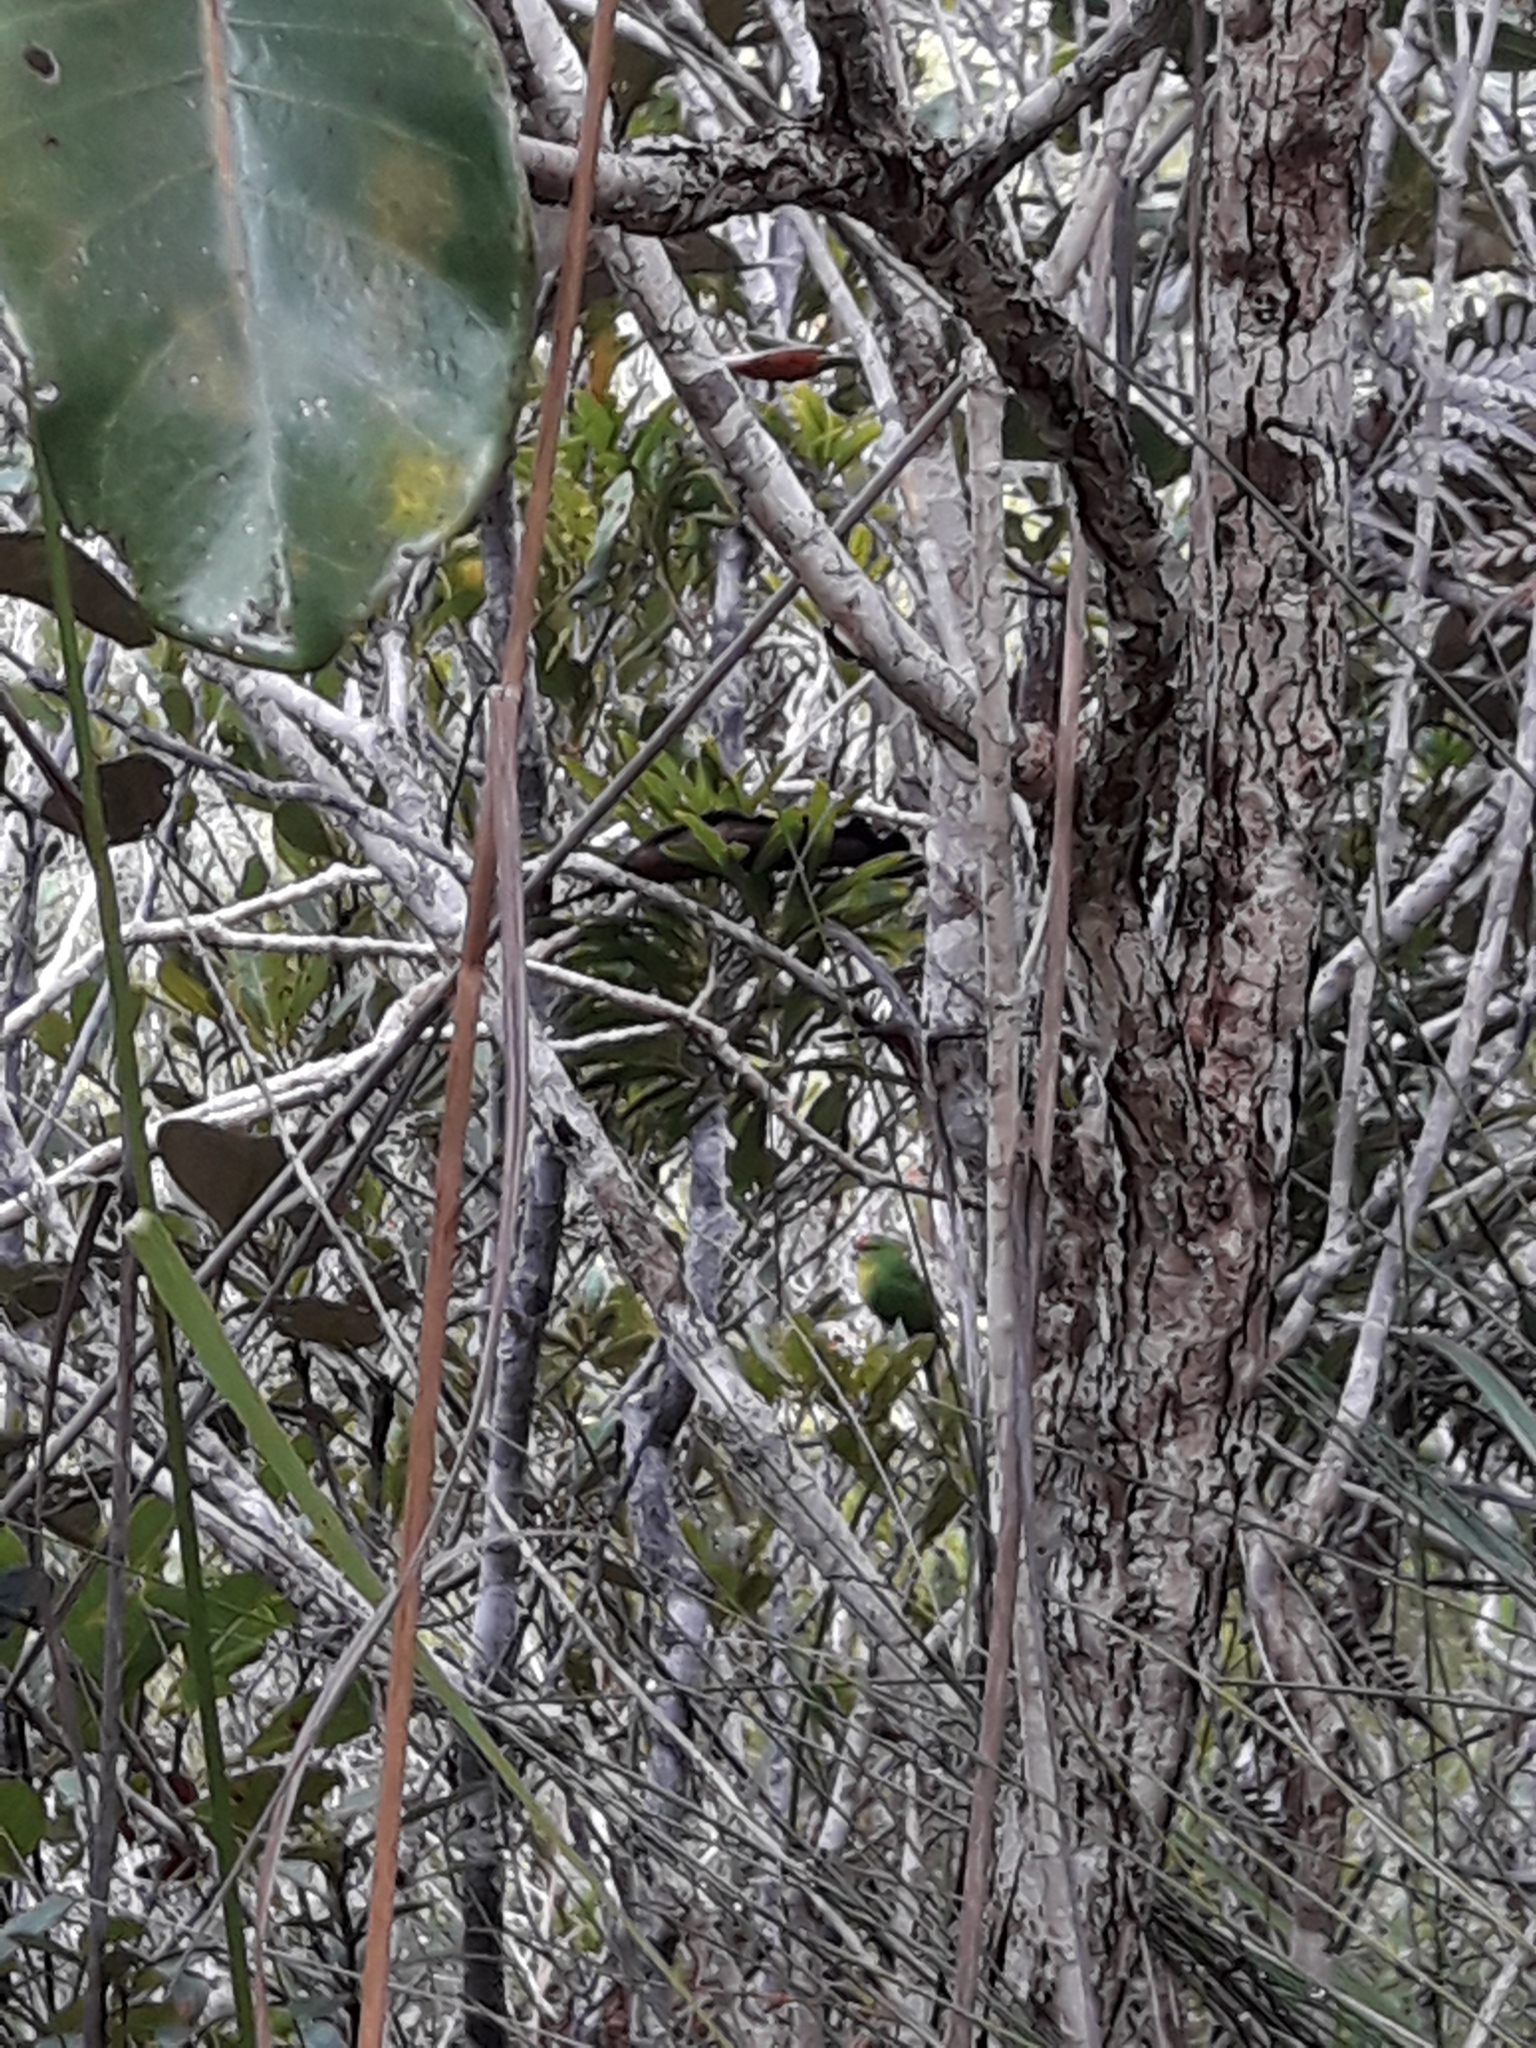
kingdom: Animalia
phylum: Chordata
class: Aves
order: Psittaciformes
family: Psittacidae
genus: Cyanoramphus
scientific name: Cyanoramphus saisseti
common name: New caledonian parakeet
